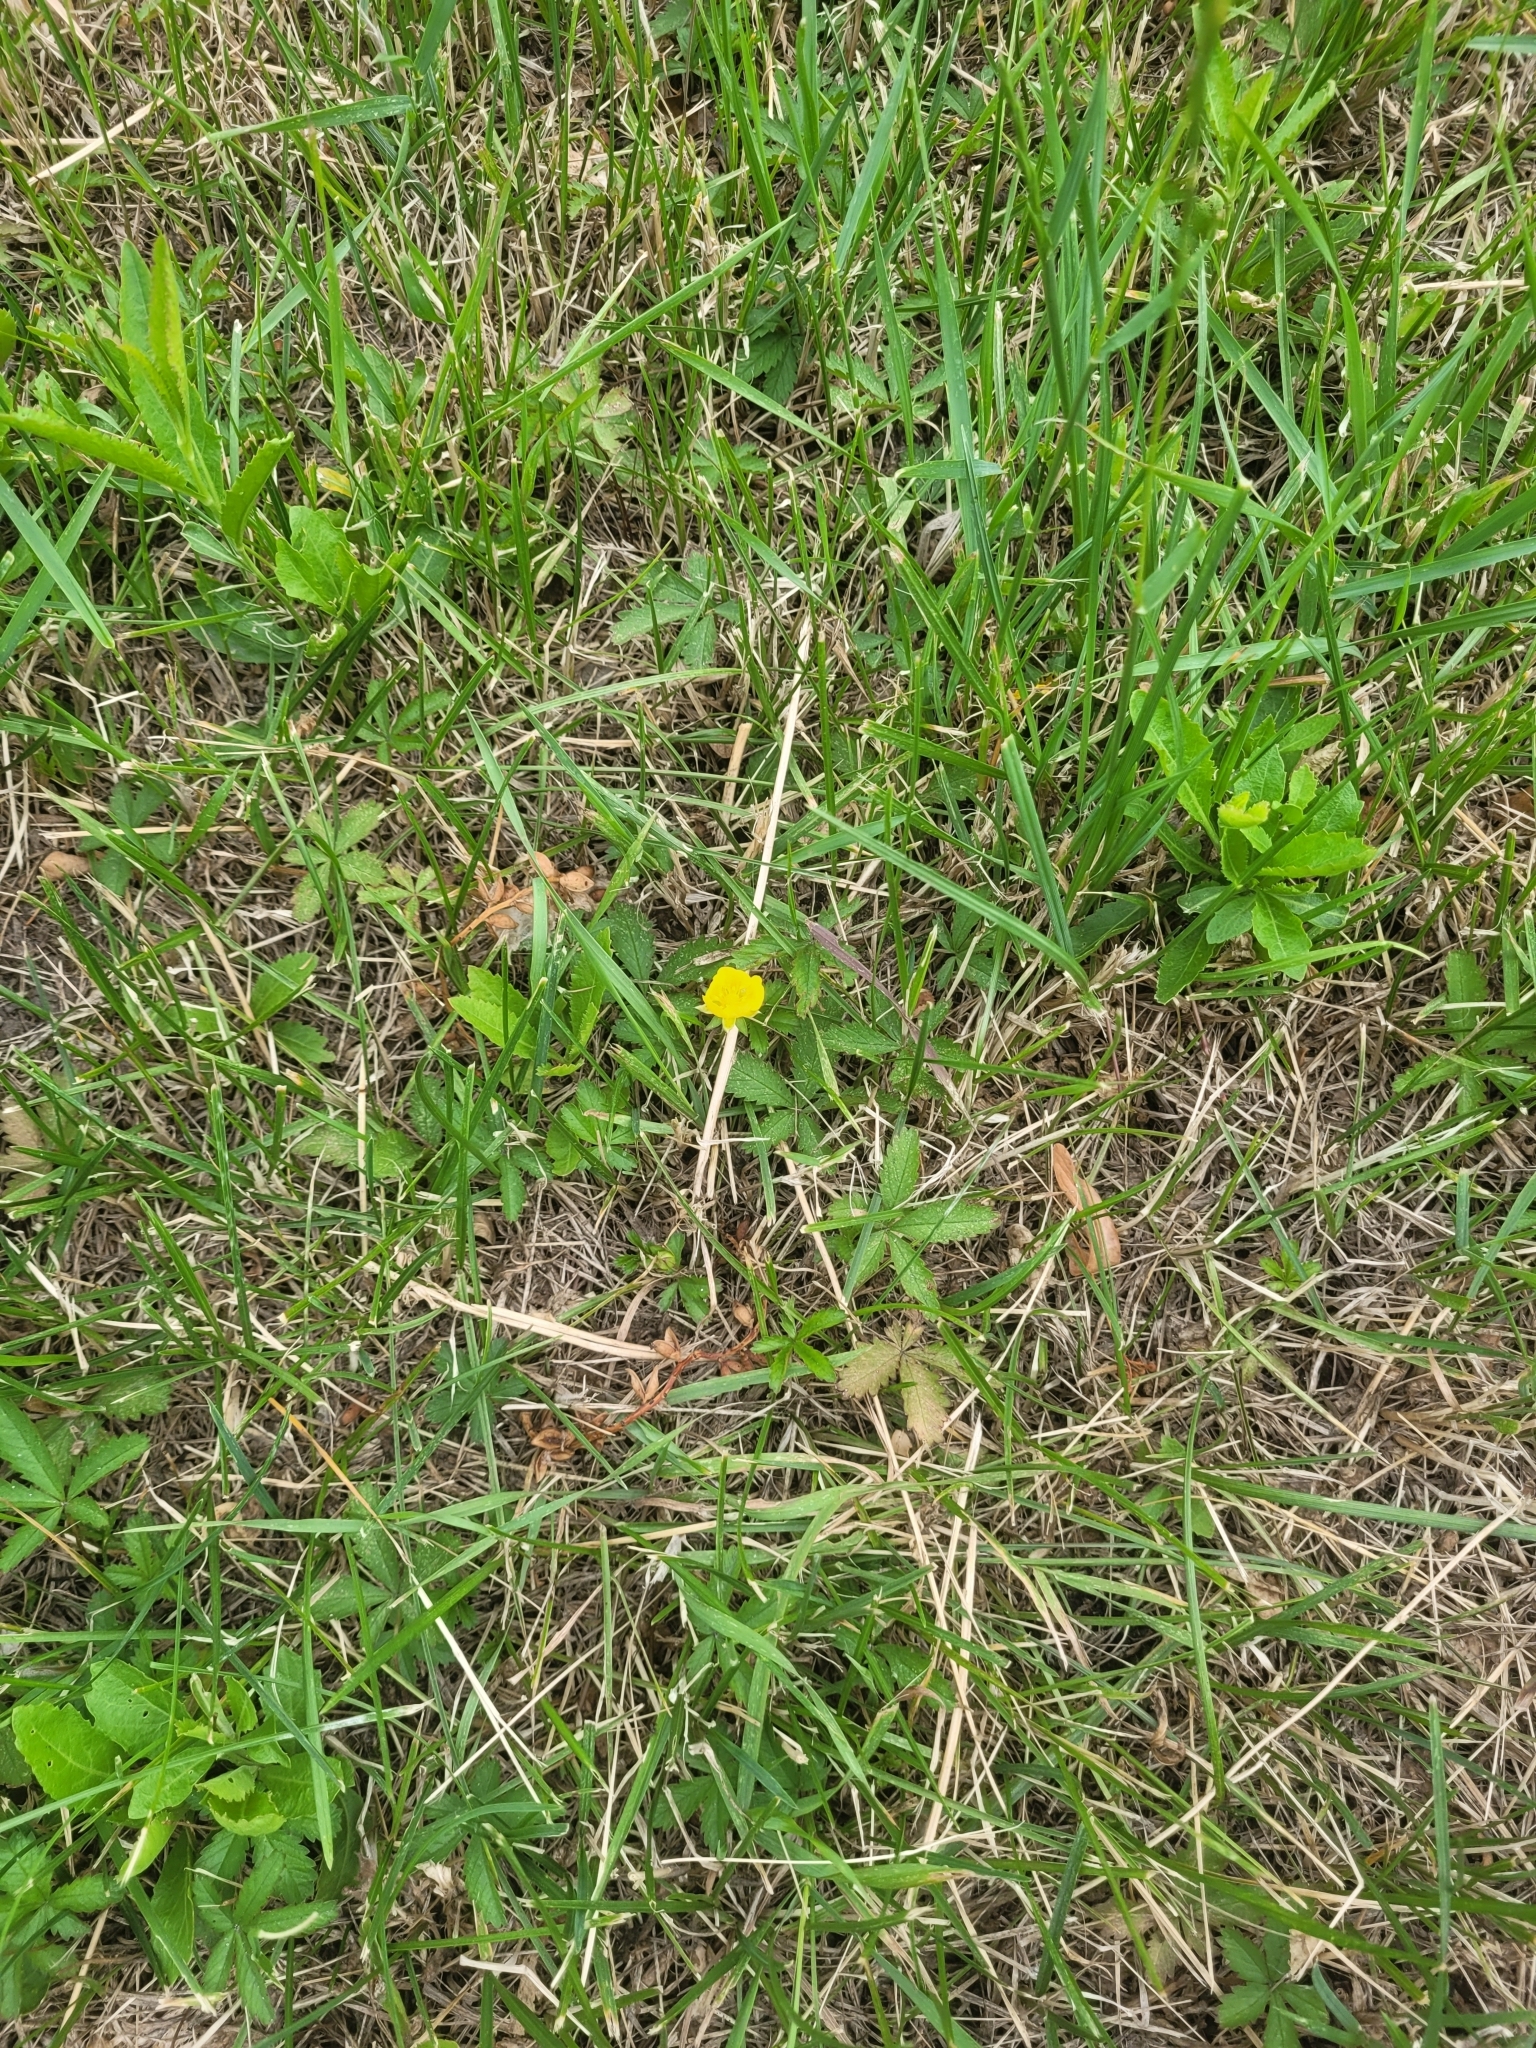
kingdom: Plantae
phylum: Tracheophyta
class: Magnoliopsida
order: Rosales
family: Rosaceae
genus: Potentilla
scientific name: Potentilla reptans
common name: Creeping cinquefoil
